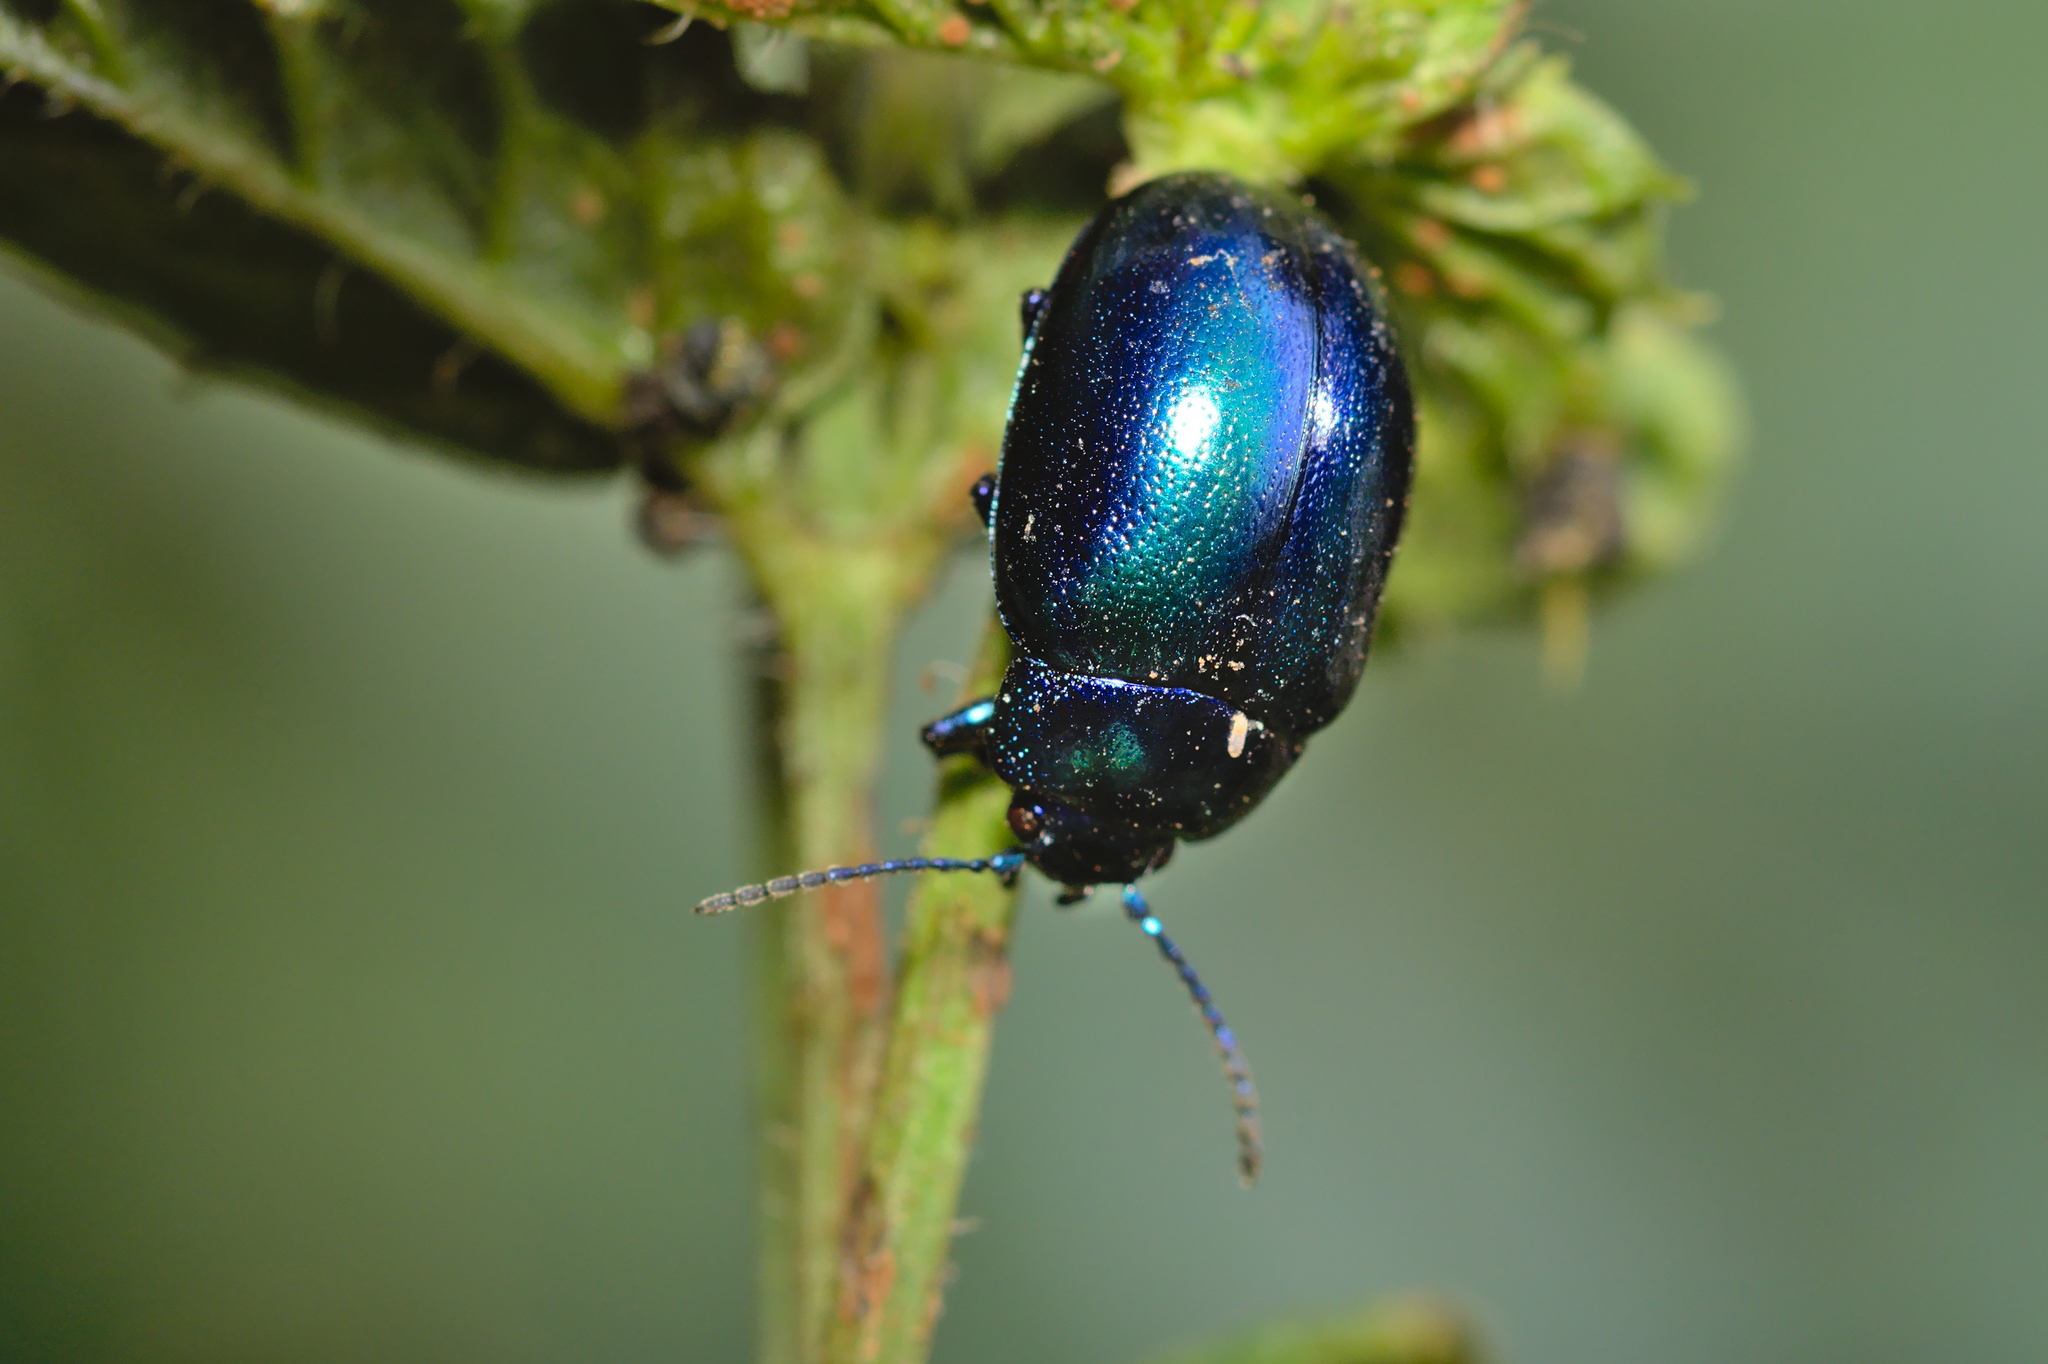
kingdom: Animalia
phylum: Arthropoda
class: Insecta
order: Coleoptera
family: Chrysomelidae
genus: Chrysolina
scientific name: Chrysolina coerulans
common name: Blue mint beetle
